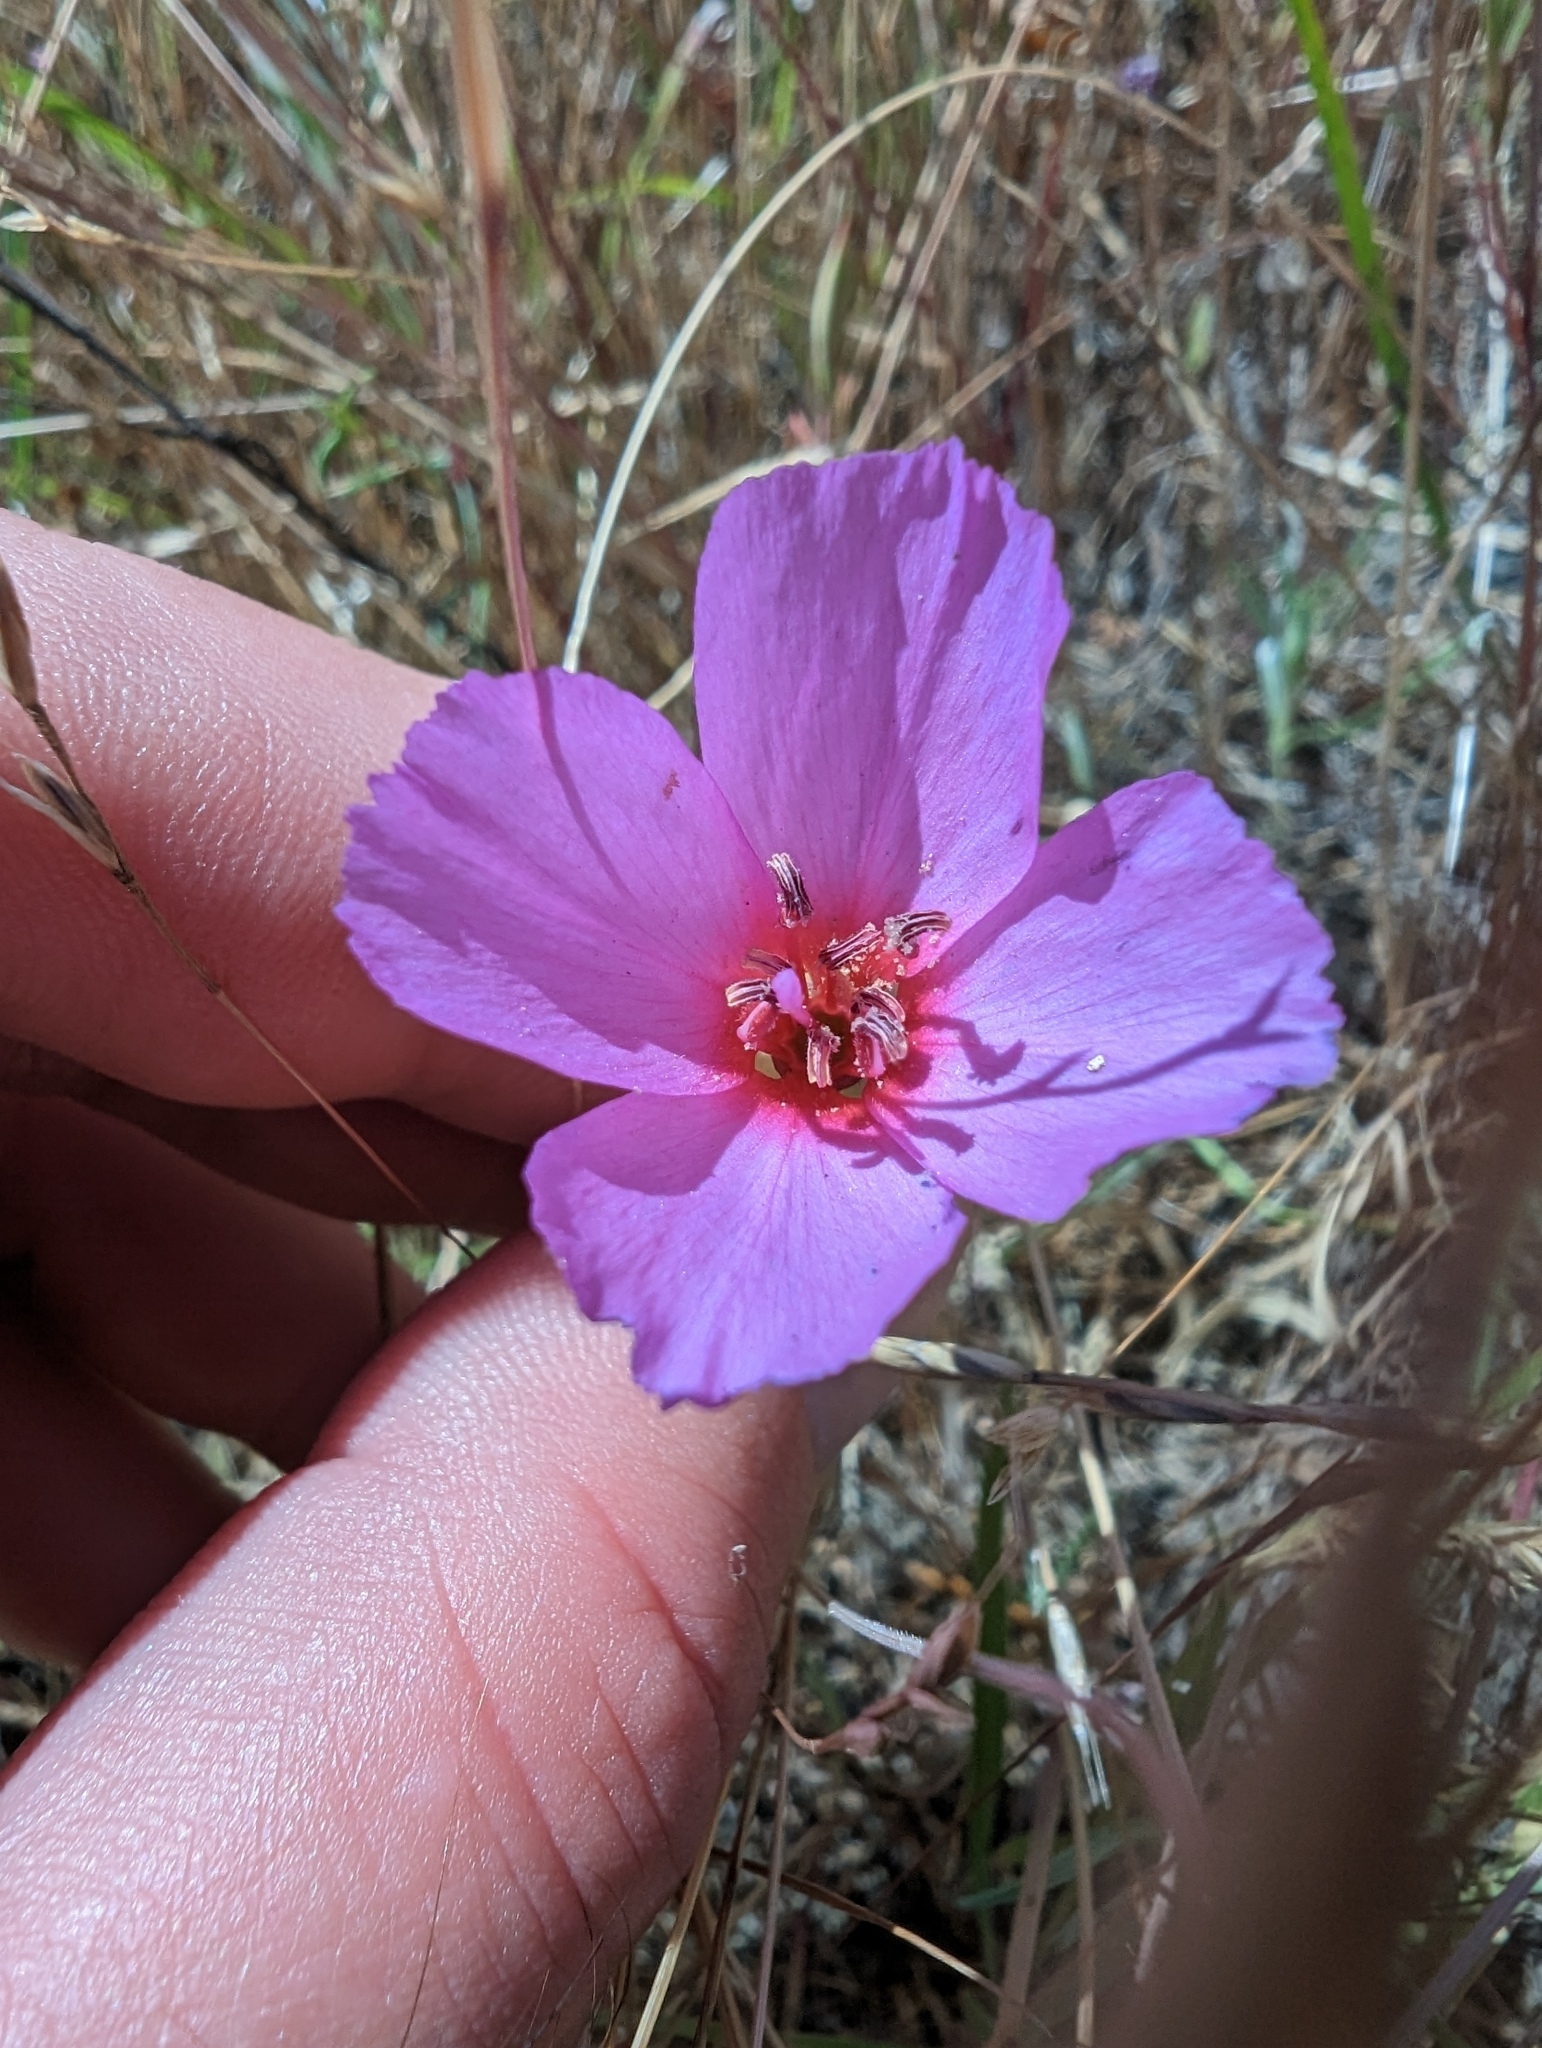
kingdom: Plantae
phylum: Tracheophyta
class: Magnoliopsida
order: Myrtales
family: Onagraceae
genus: Clarkia
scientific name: Clarkia rubicunda
